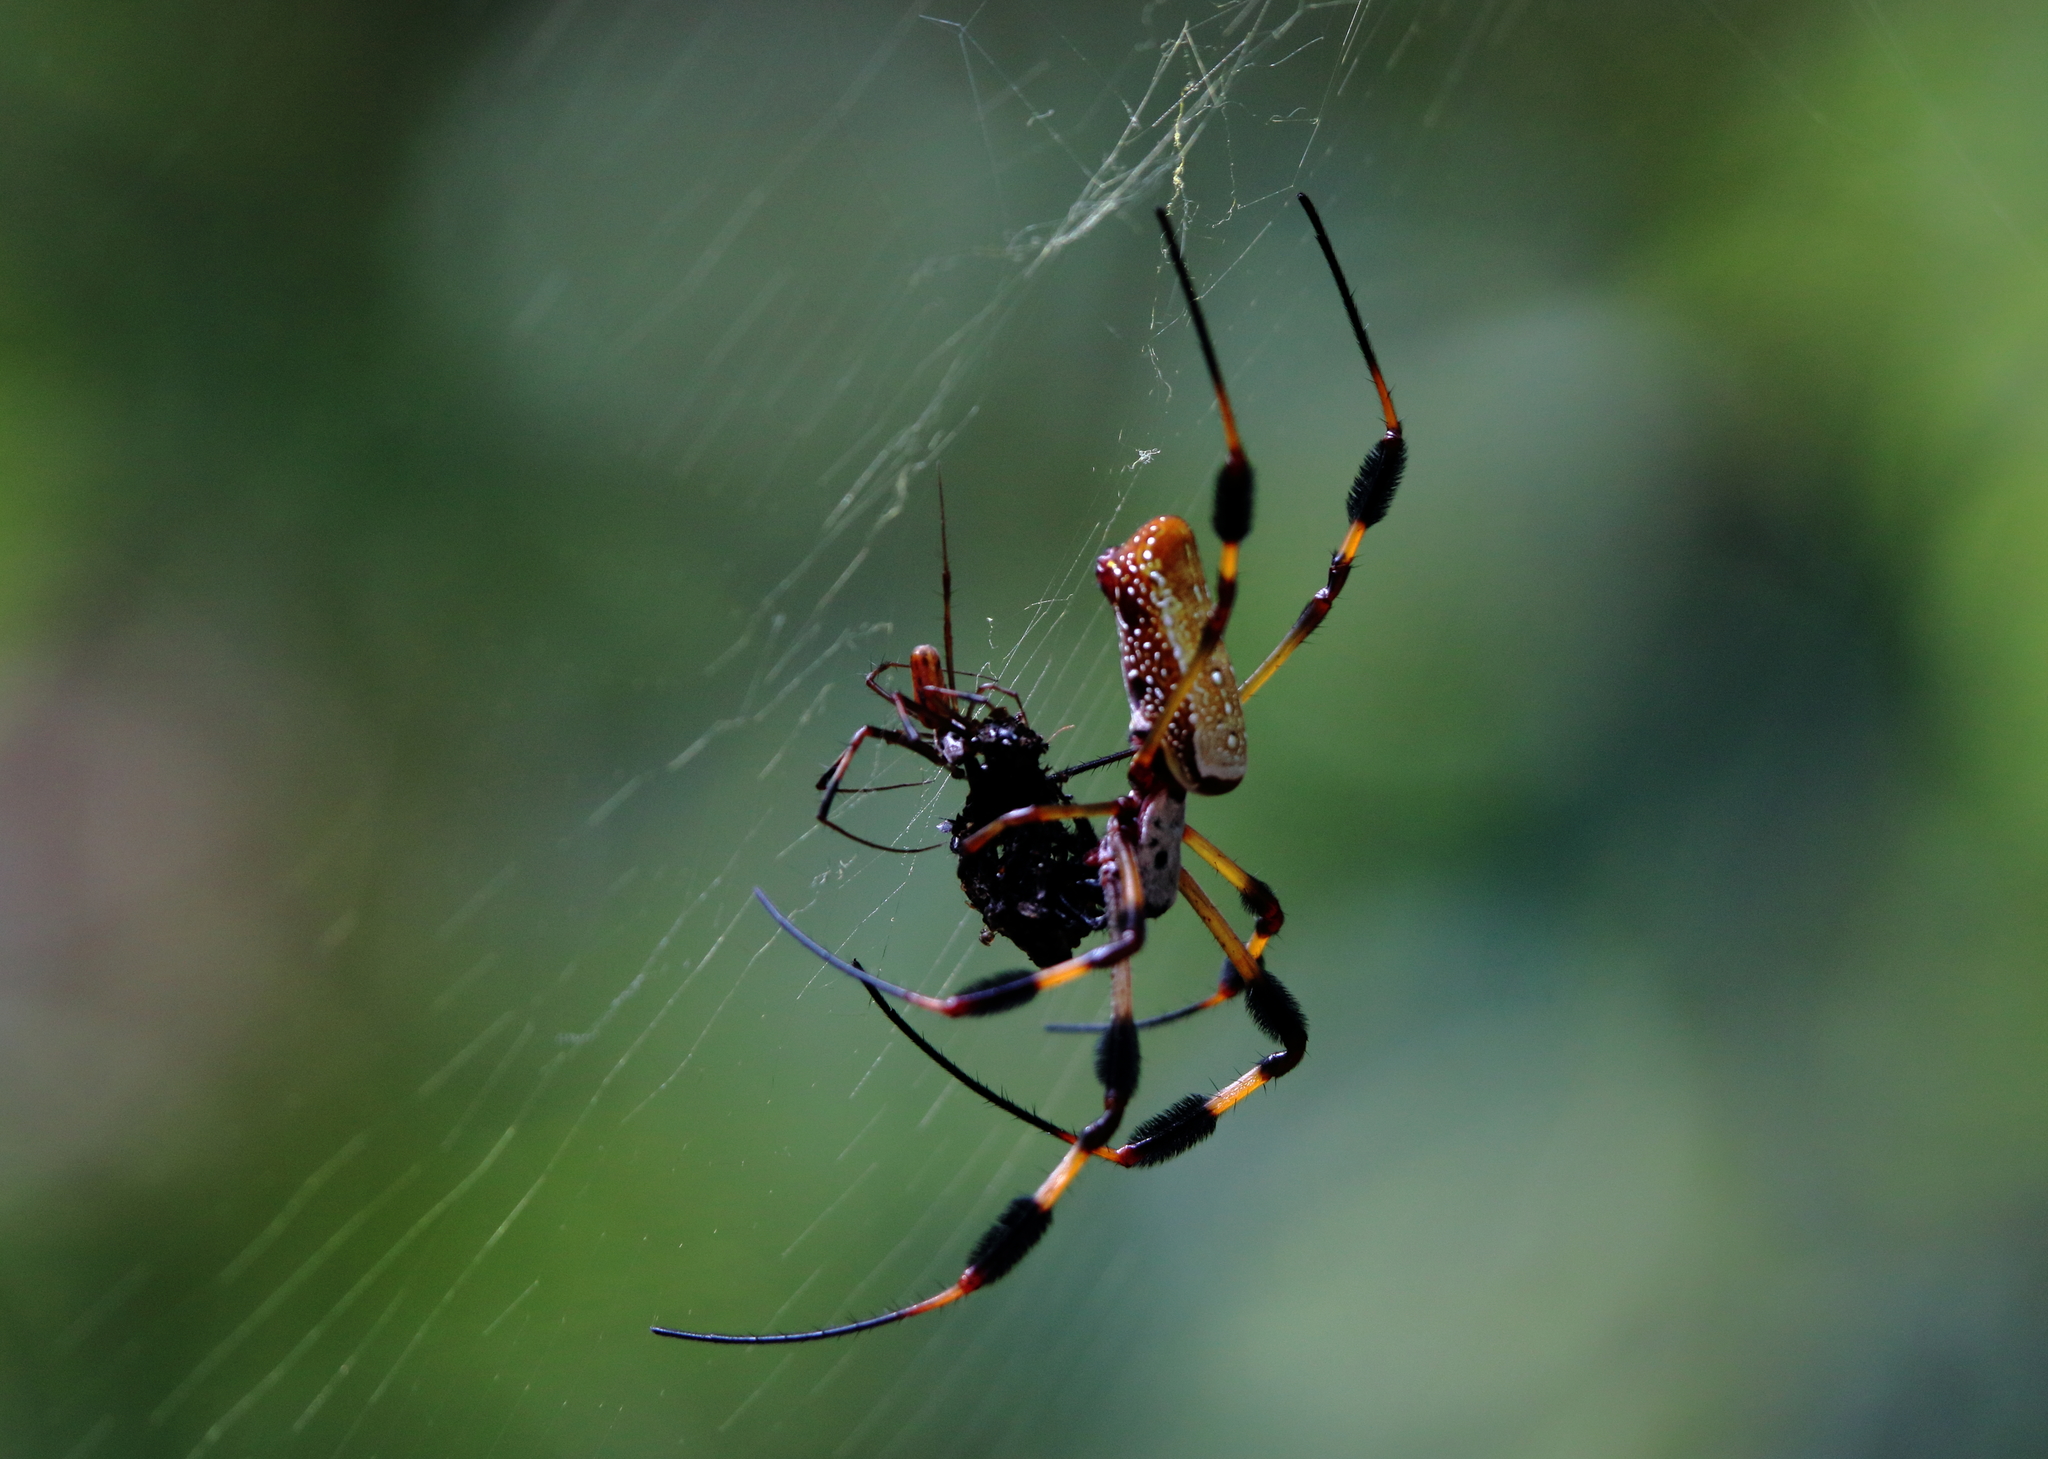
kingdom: Animalia
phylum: Arthropoda
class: Arachnida
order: Araneae
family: Araneidae
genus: Trichonephila
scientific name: Trichonephila clavipes
